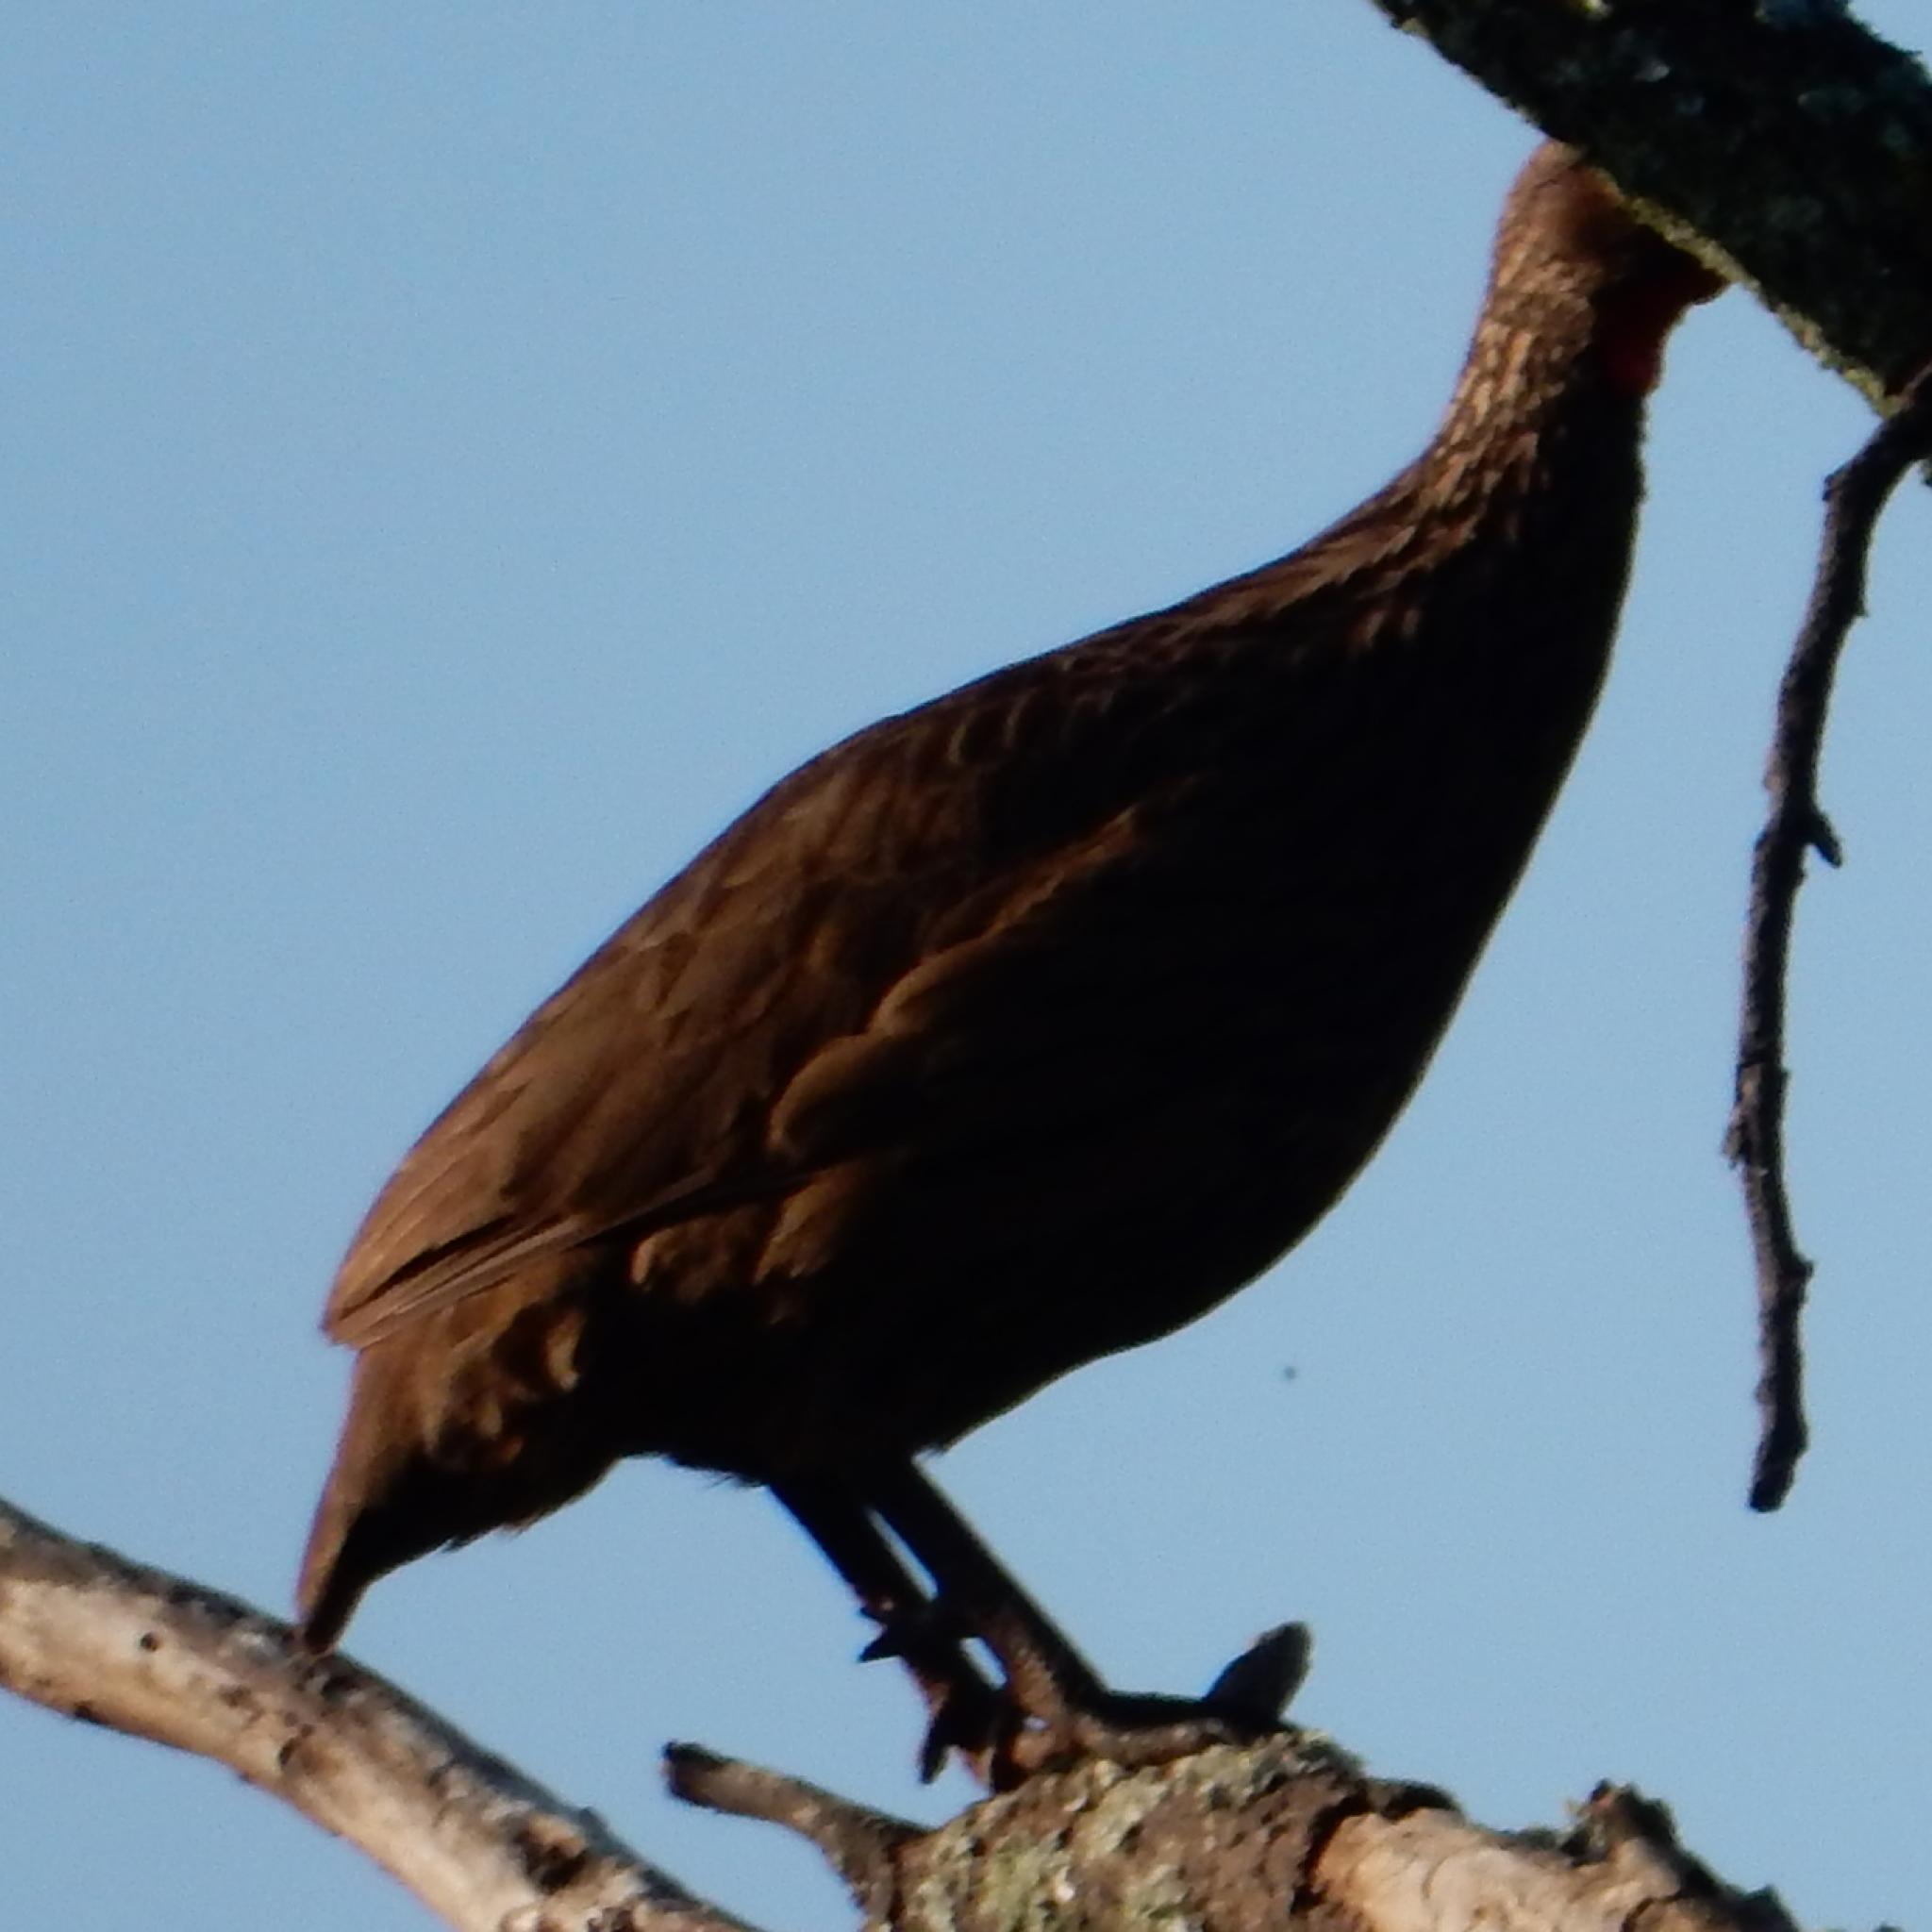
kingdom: Animalia
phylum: Chordata
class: Aves
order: Galliformes
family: Phasianidae
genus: Pternistis
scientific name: Pternistis swainsonii
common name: Swainson's spurfowl
